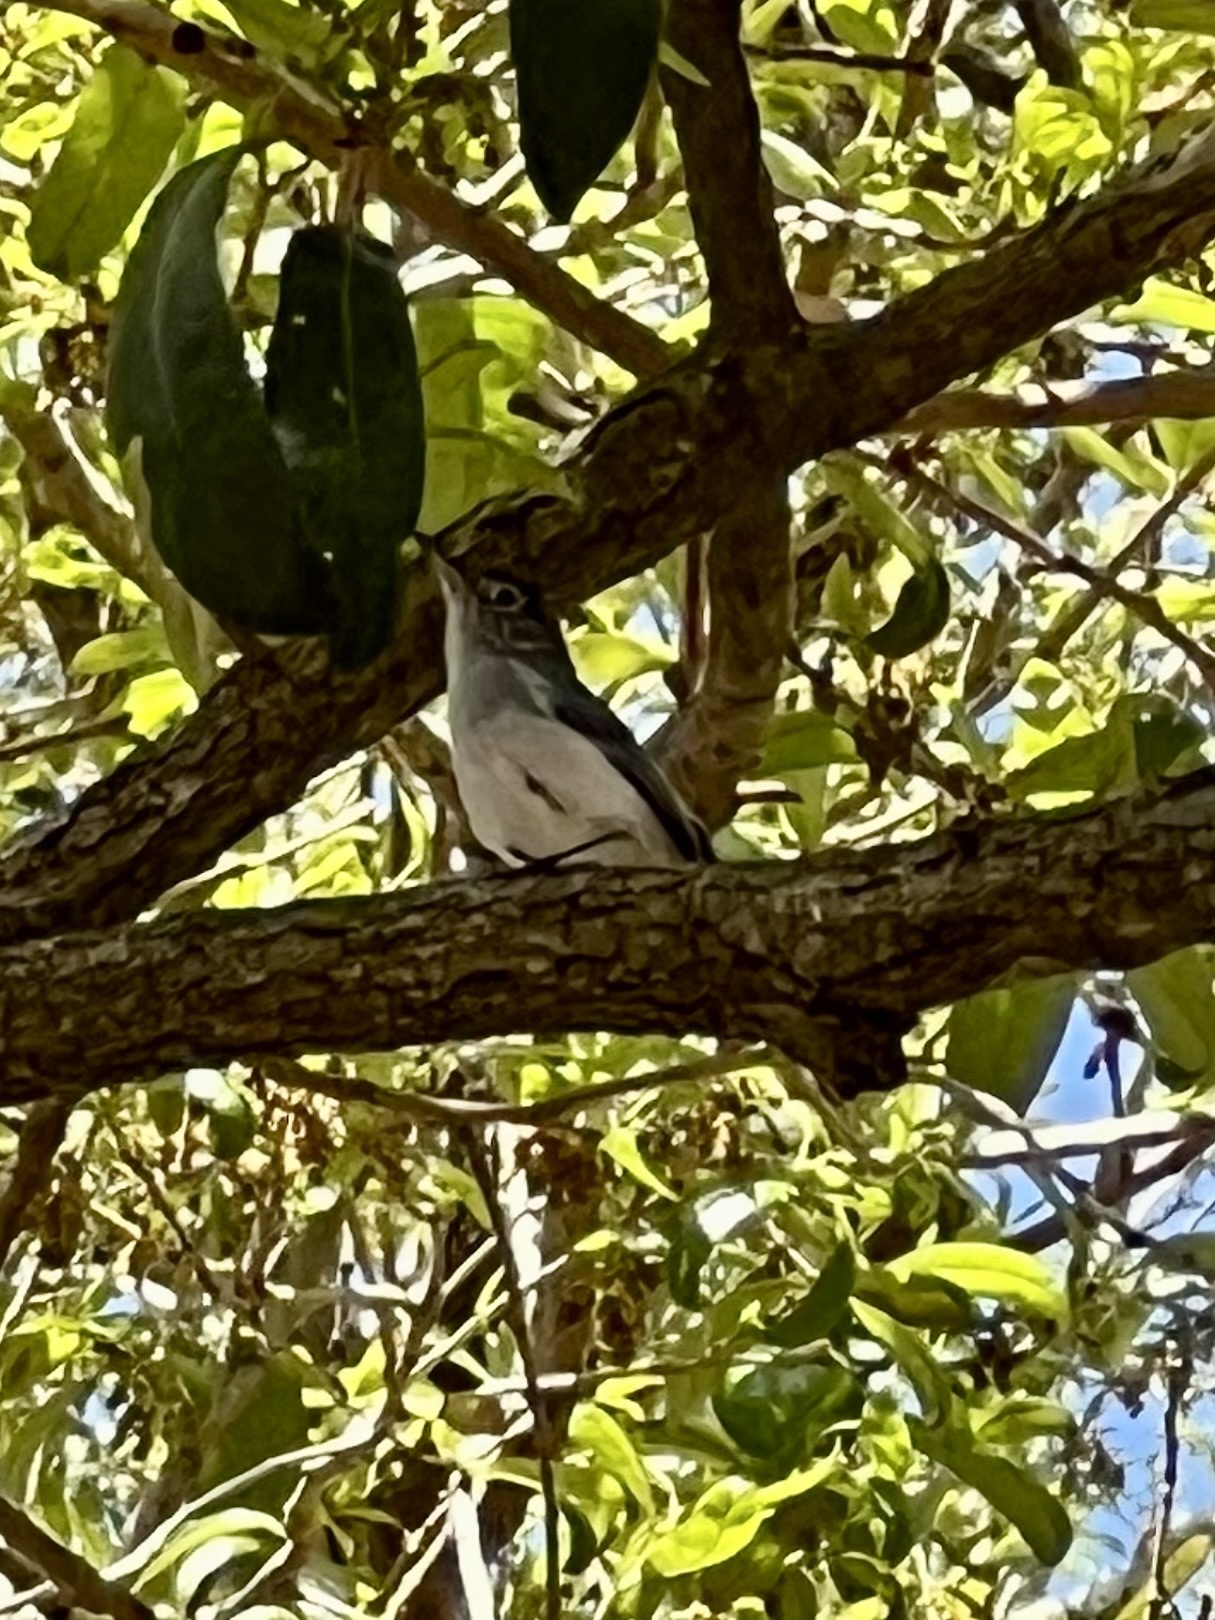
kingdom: Animalia
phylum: Chordata
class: Aves
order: Passeriformes
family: Polioptilidae
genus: Polioptila
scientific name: Polioptila caerulea
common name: Blue-gray gnatcatcher
